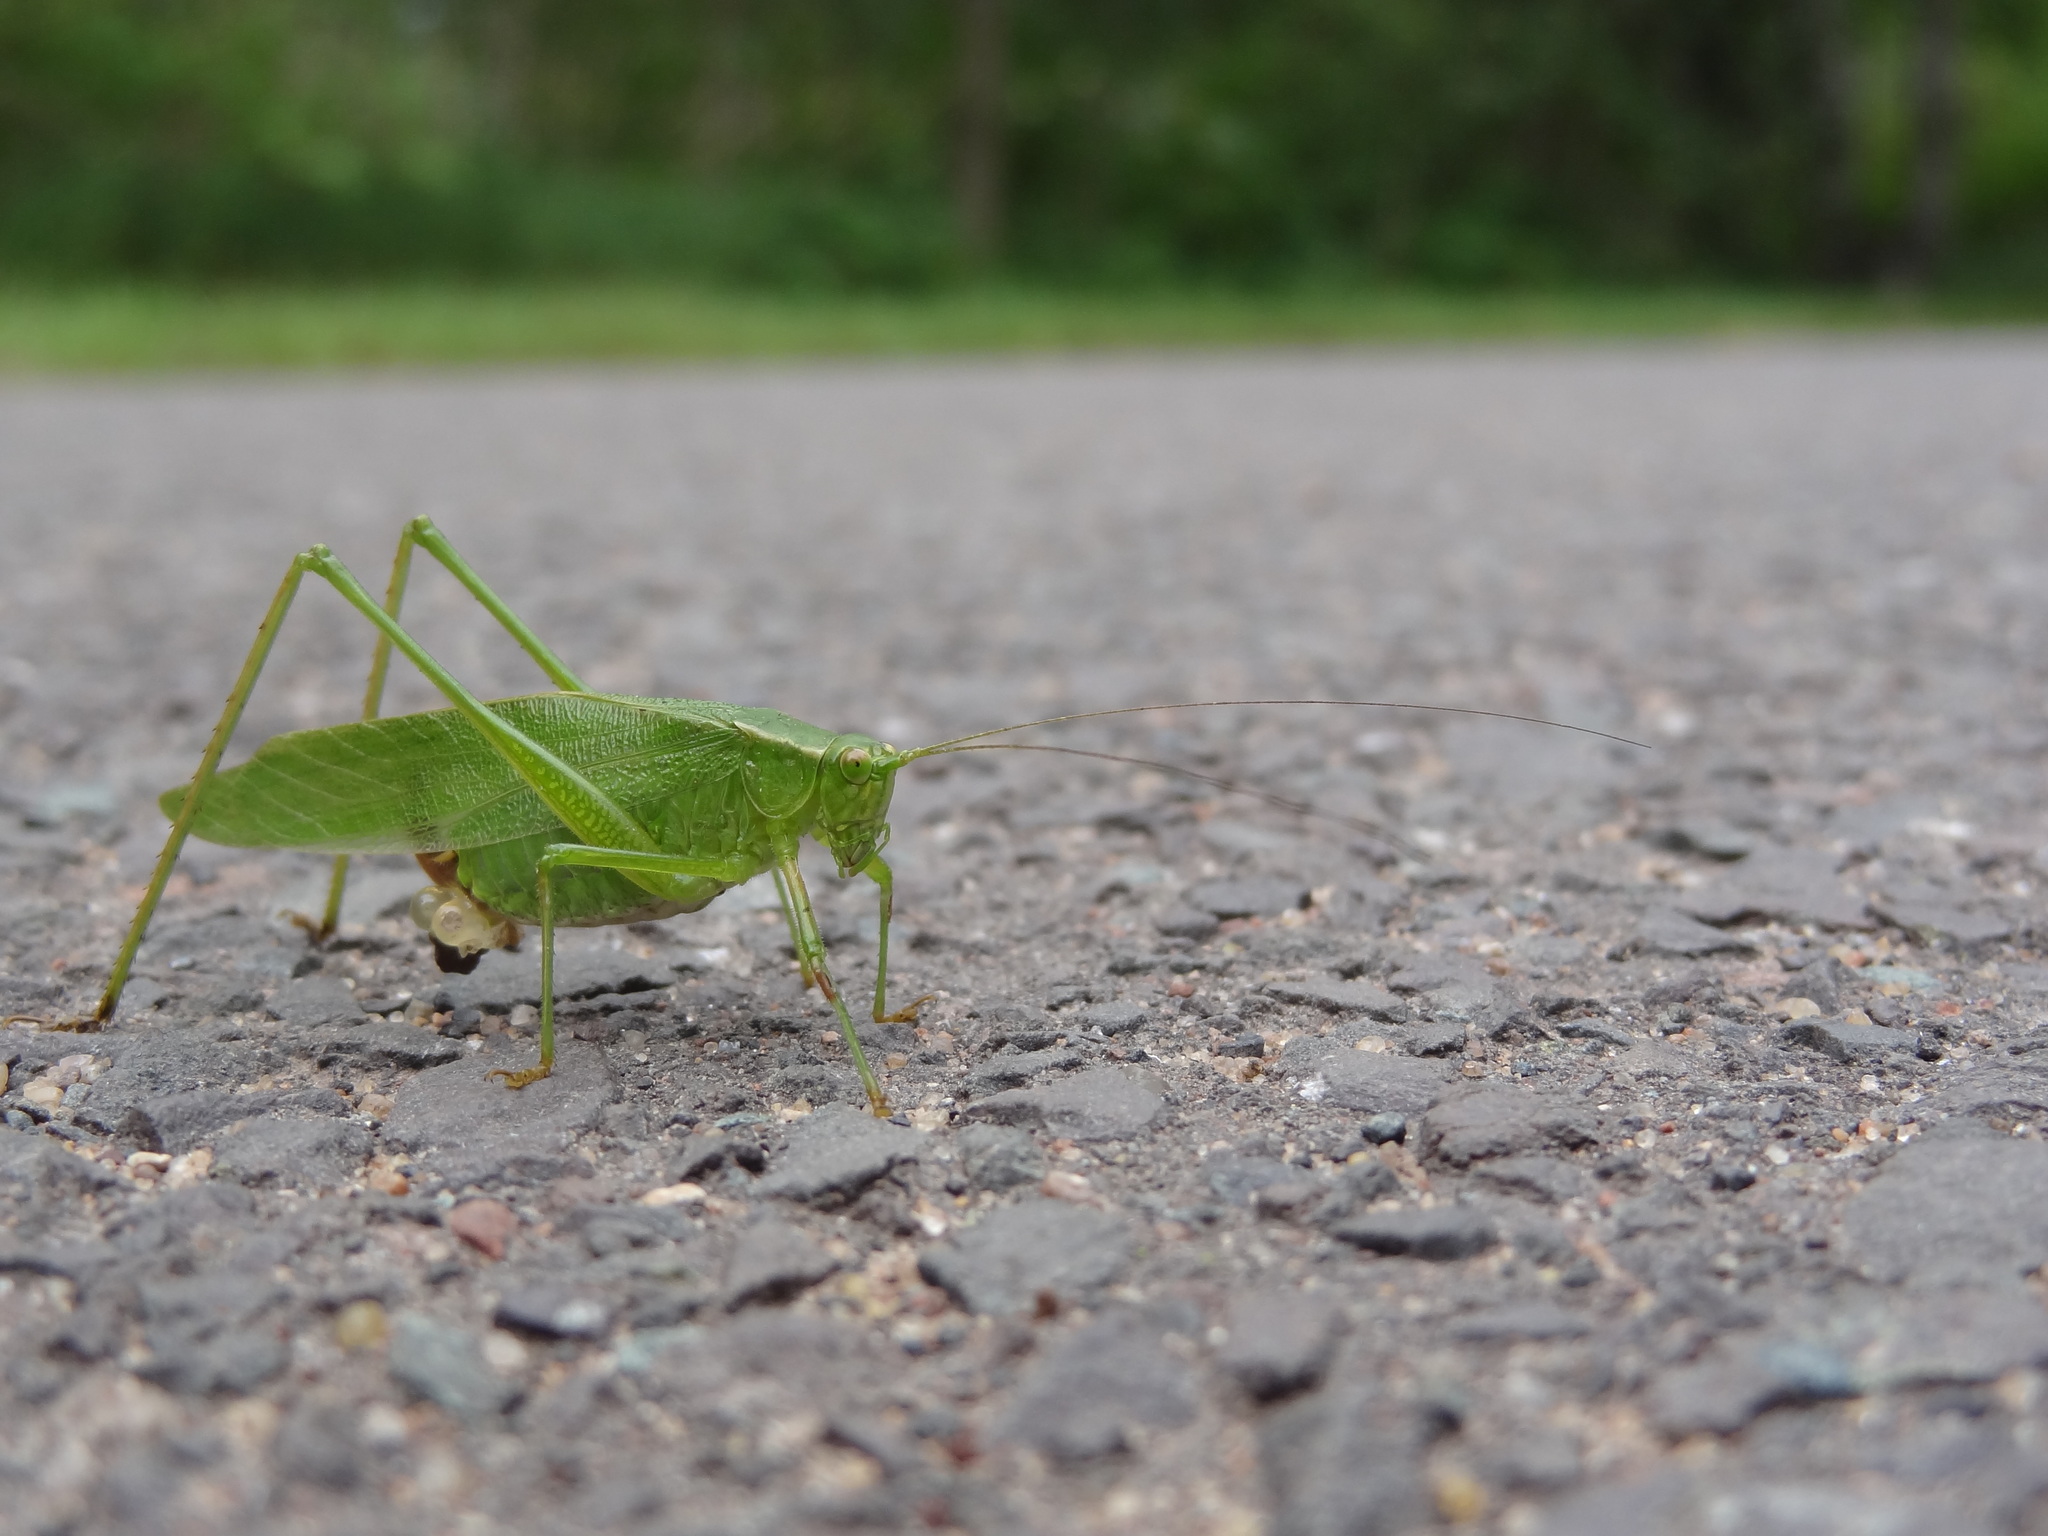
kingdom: Animalia
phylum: Arthropoda
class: Insecta
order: Orthoptera
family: Tettigoniidae
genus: Scudderia
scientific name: Scudderia furcata
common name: Fork-tailed bush katydid
